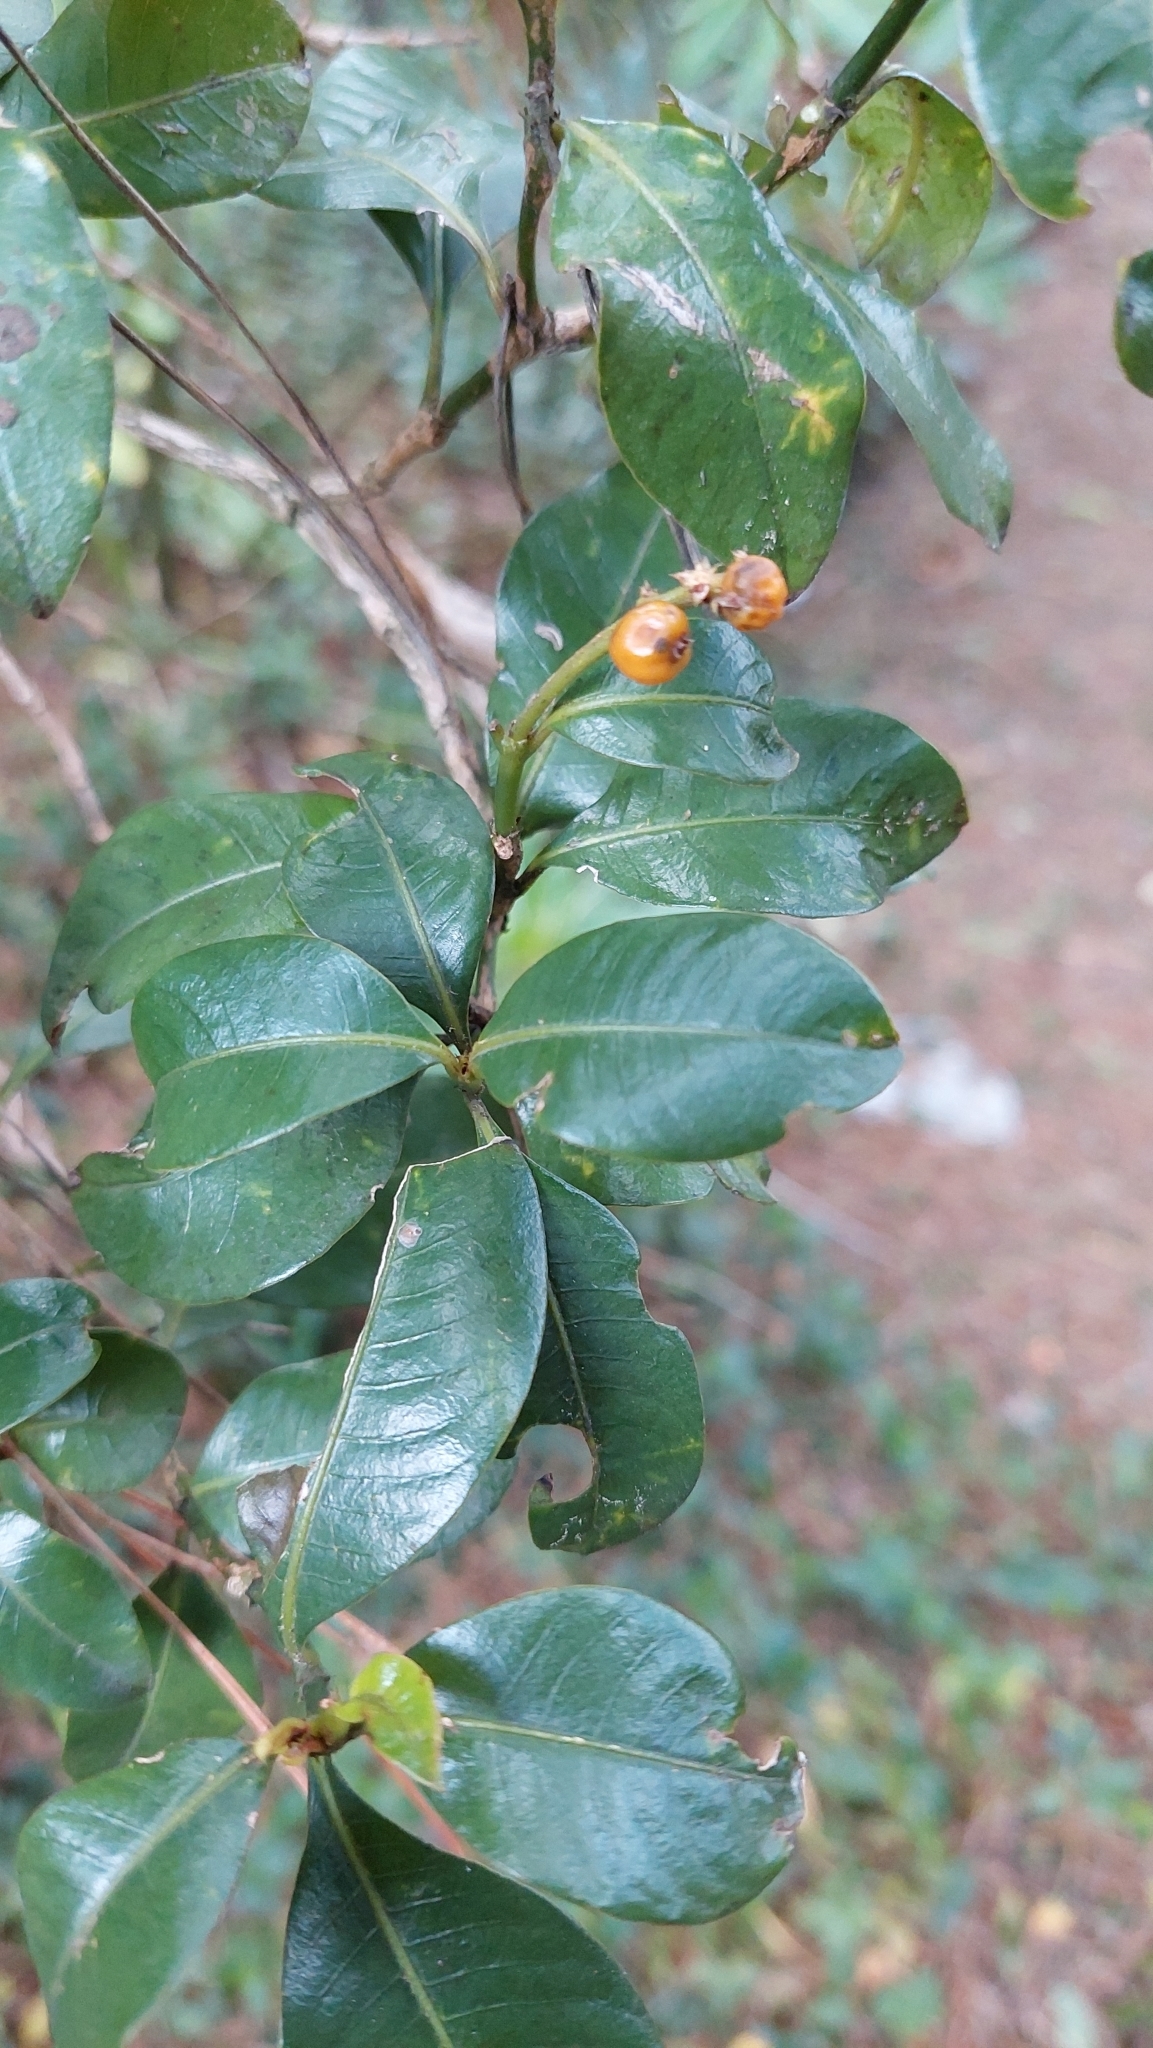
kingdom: Plantae
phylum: Tracheophyta
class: Magnoliopsida
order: Gentianales
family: Rubiaceae
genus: Palicourea
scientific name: Palicourea boqueronensis
